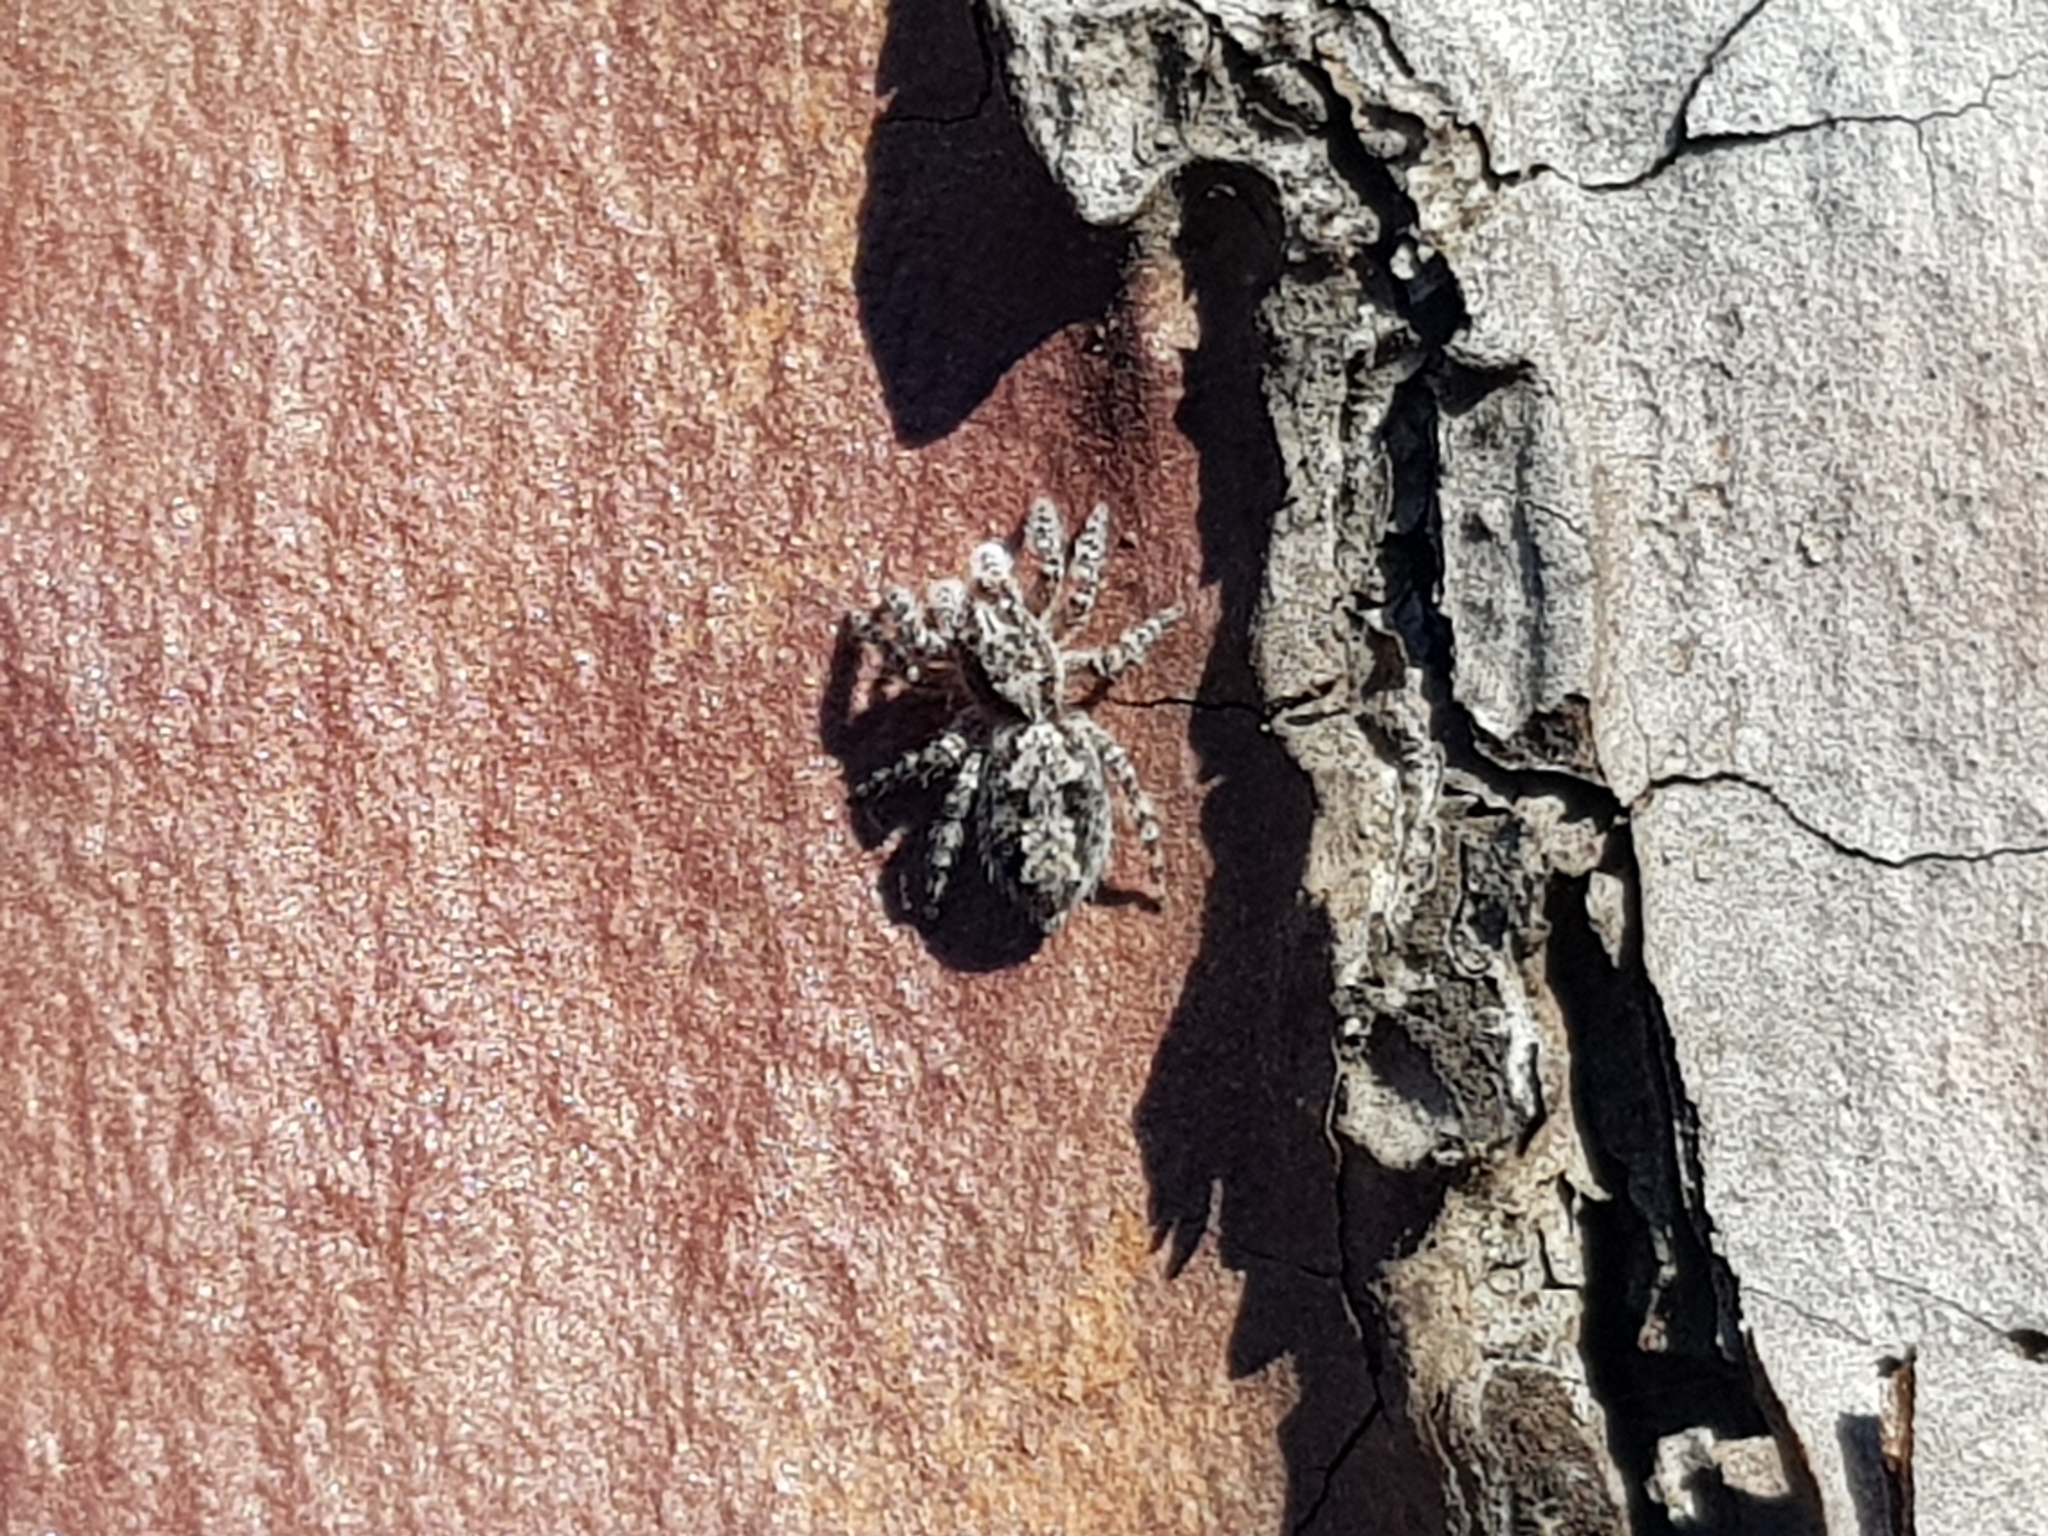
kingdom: Animalia
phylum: Arthropoda
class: Arachnida
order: Araneae
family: Salticidae
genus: Clynotis
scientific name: Clynotis severus
